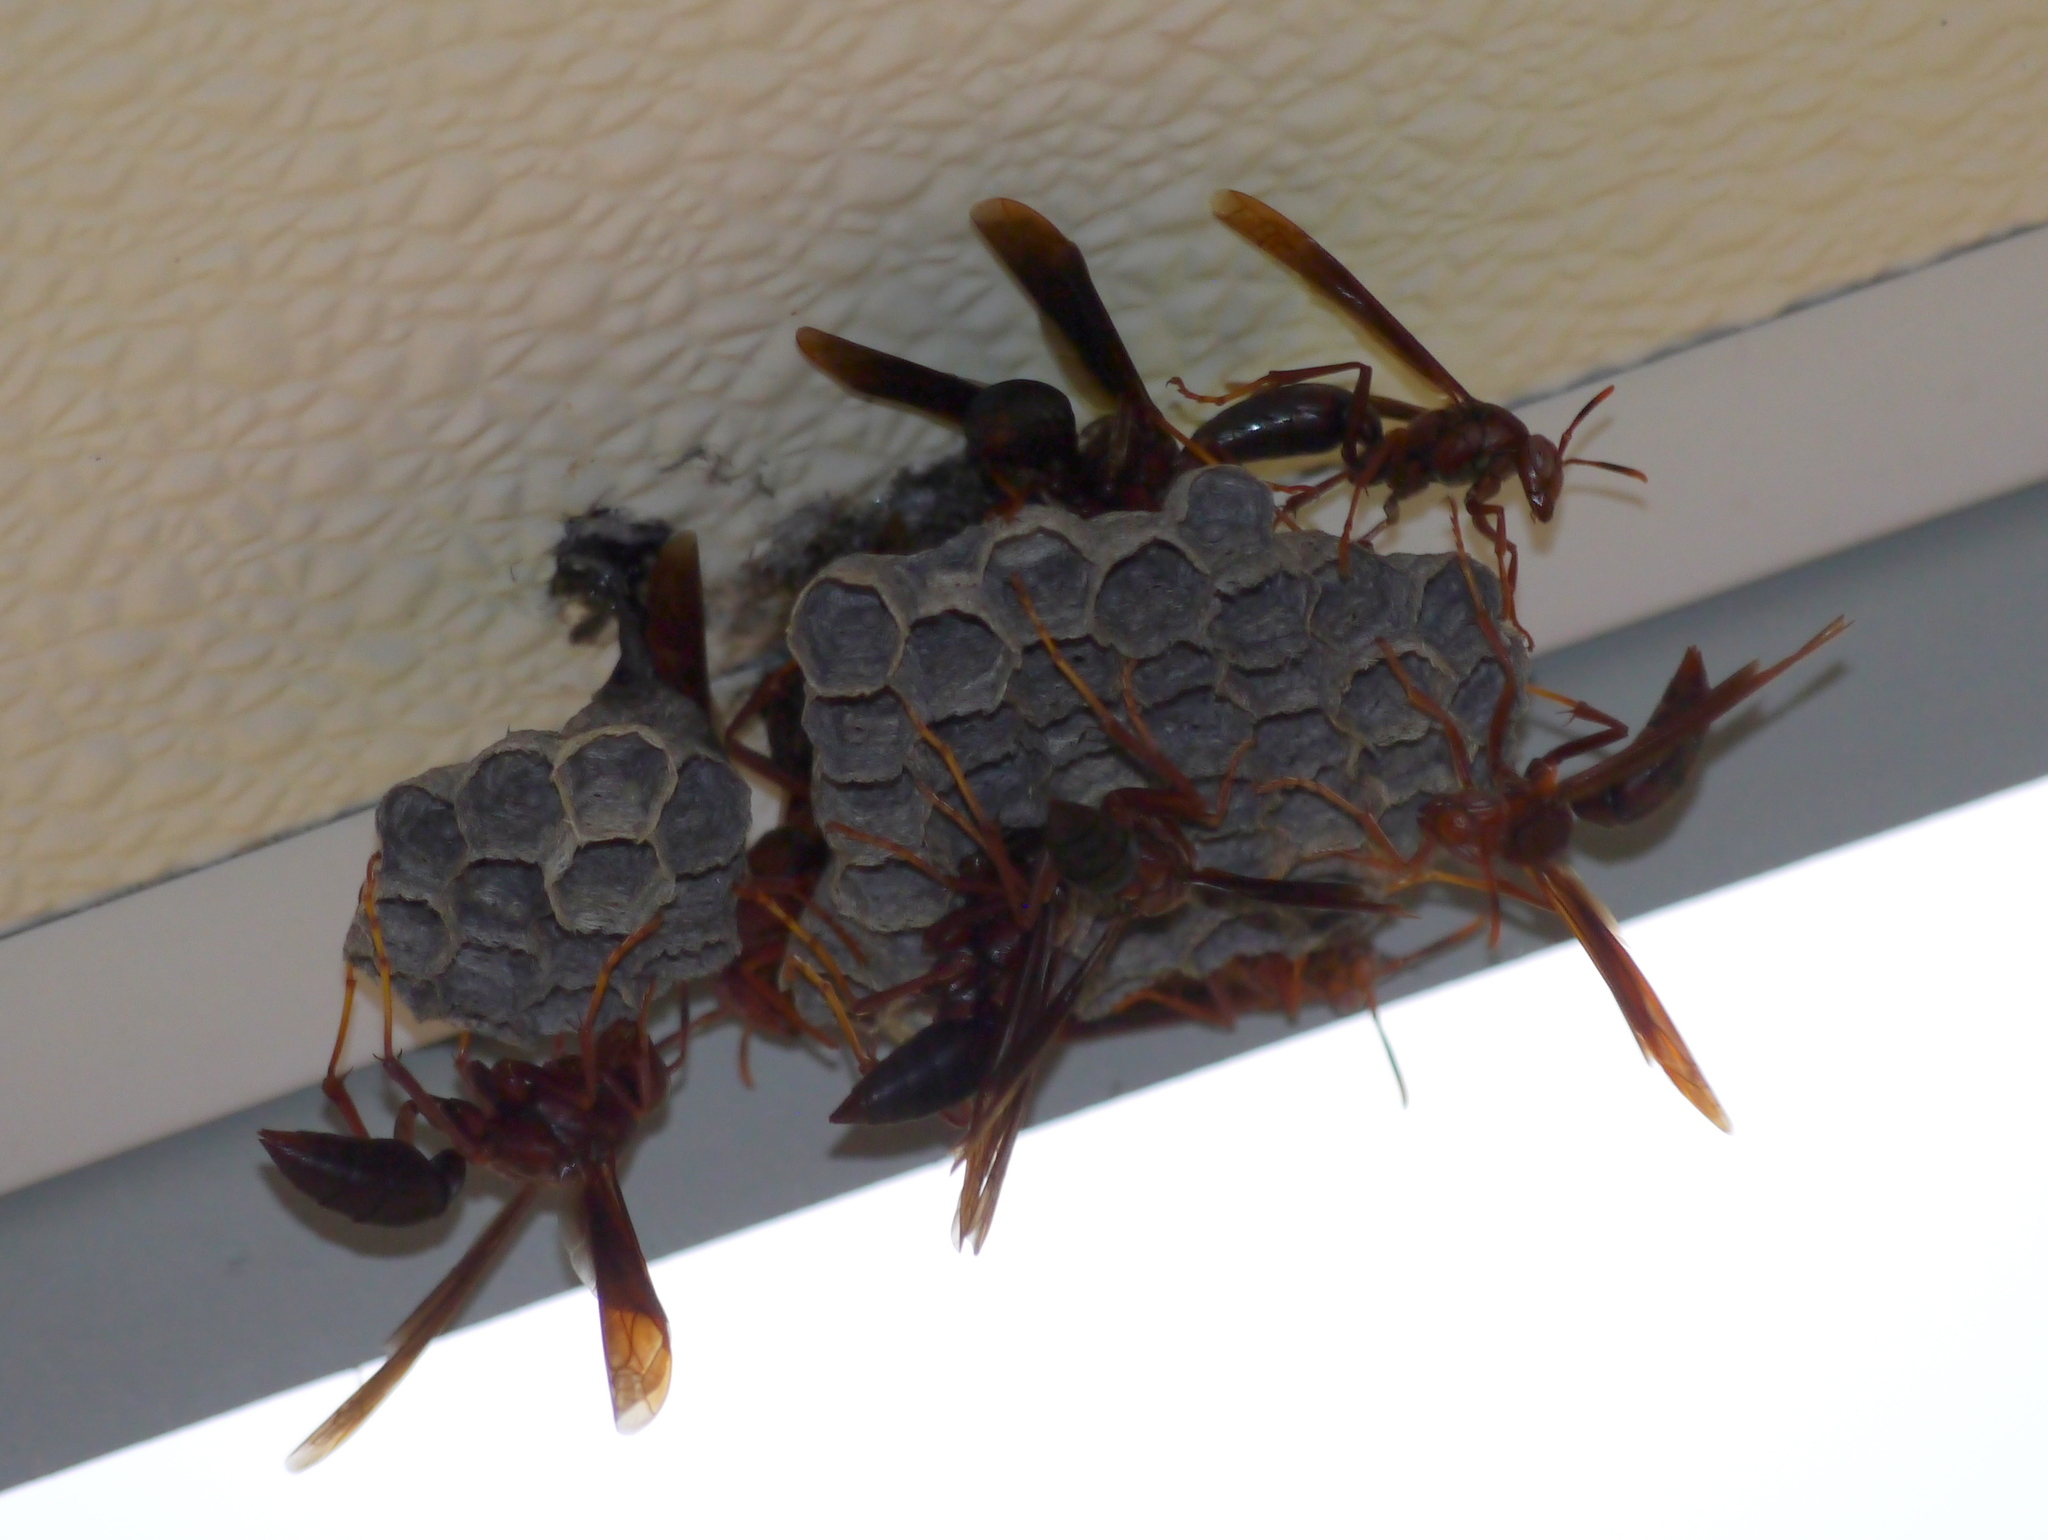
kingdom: Animalia
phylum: Arthropoda
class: Insecta
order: Hymenoptera
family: Eumenidae
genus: Polistes
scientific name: Polistes major
